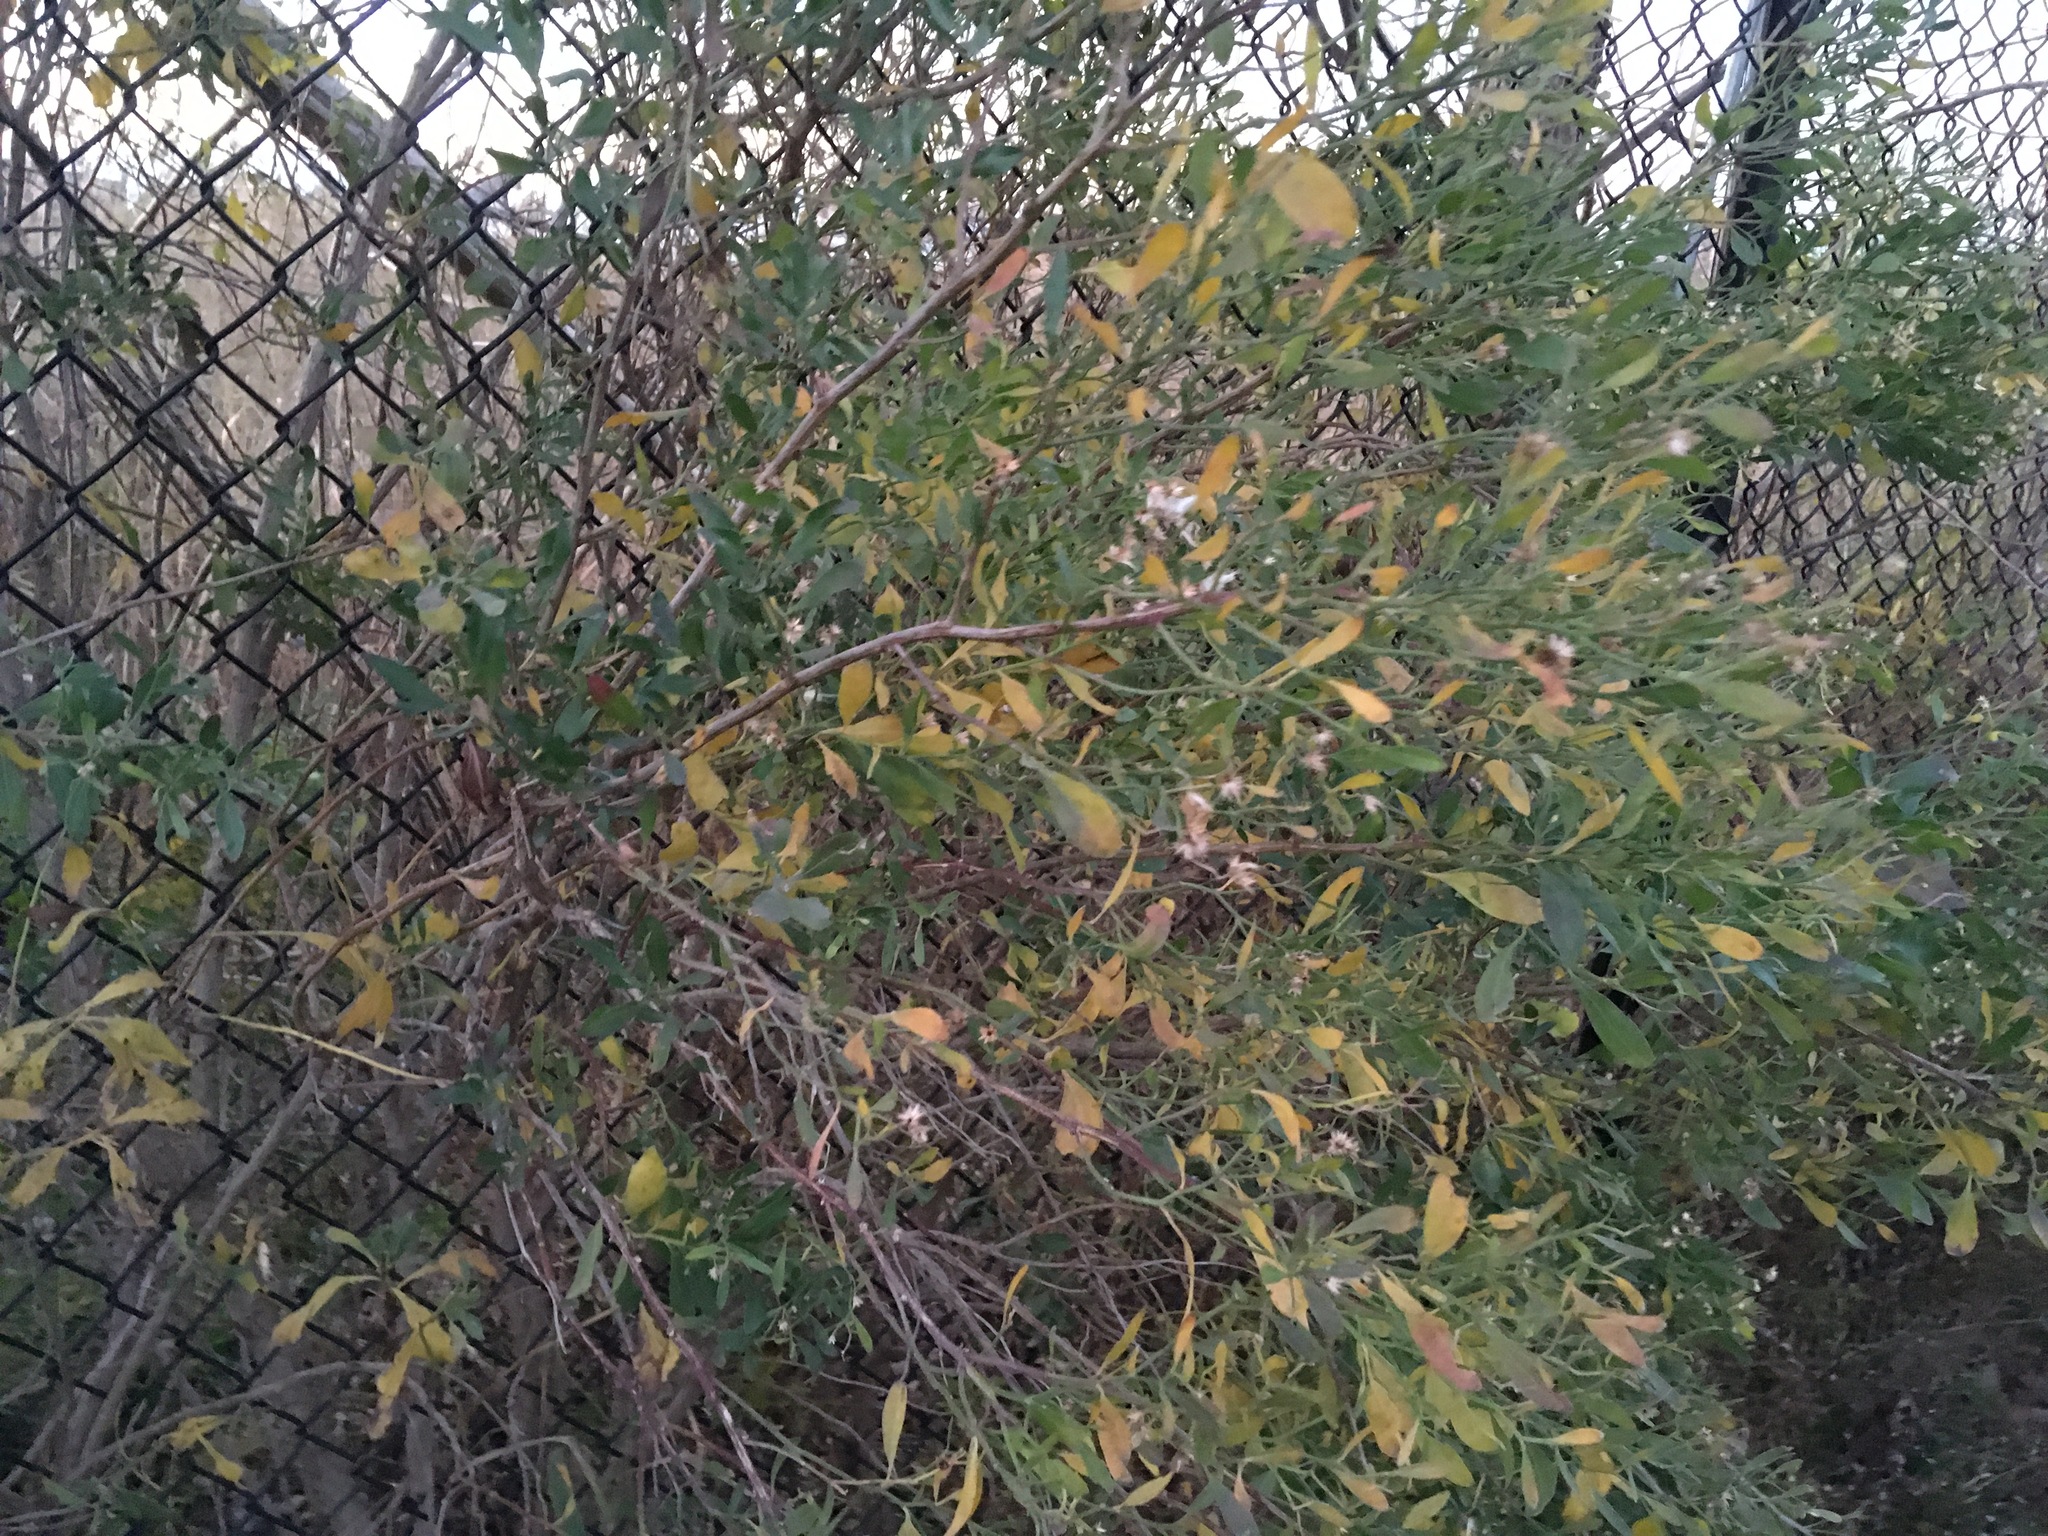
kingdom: Plantae
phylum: Tracheophyta
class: Magnoliopsida
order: Asterales
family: Asteraceae
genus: Baccharis
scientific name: Baccharis halimifolia
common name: Eastern baccharis
